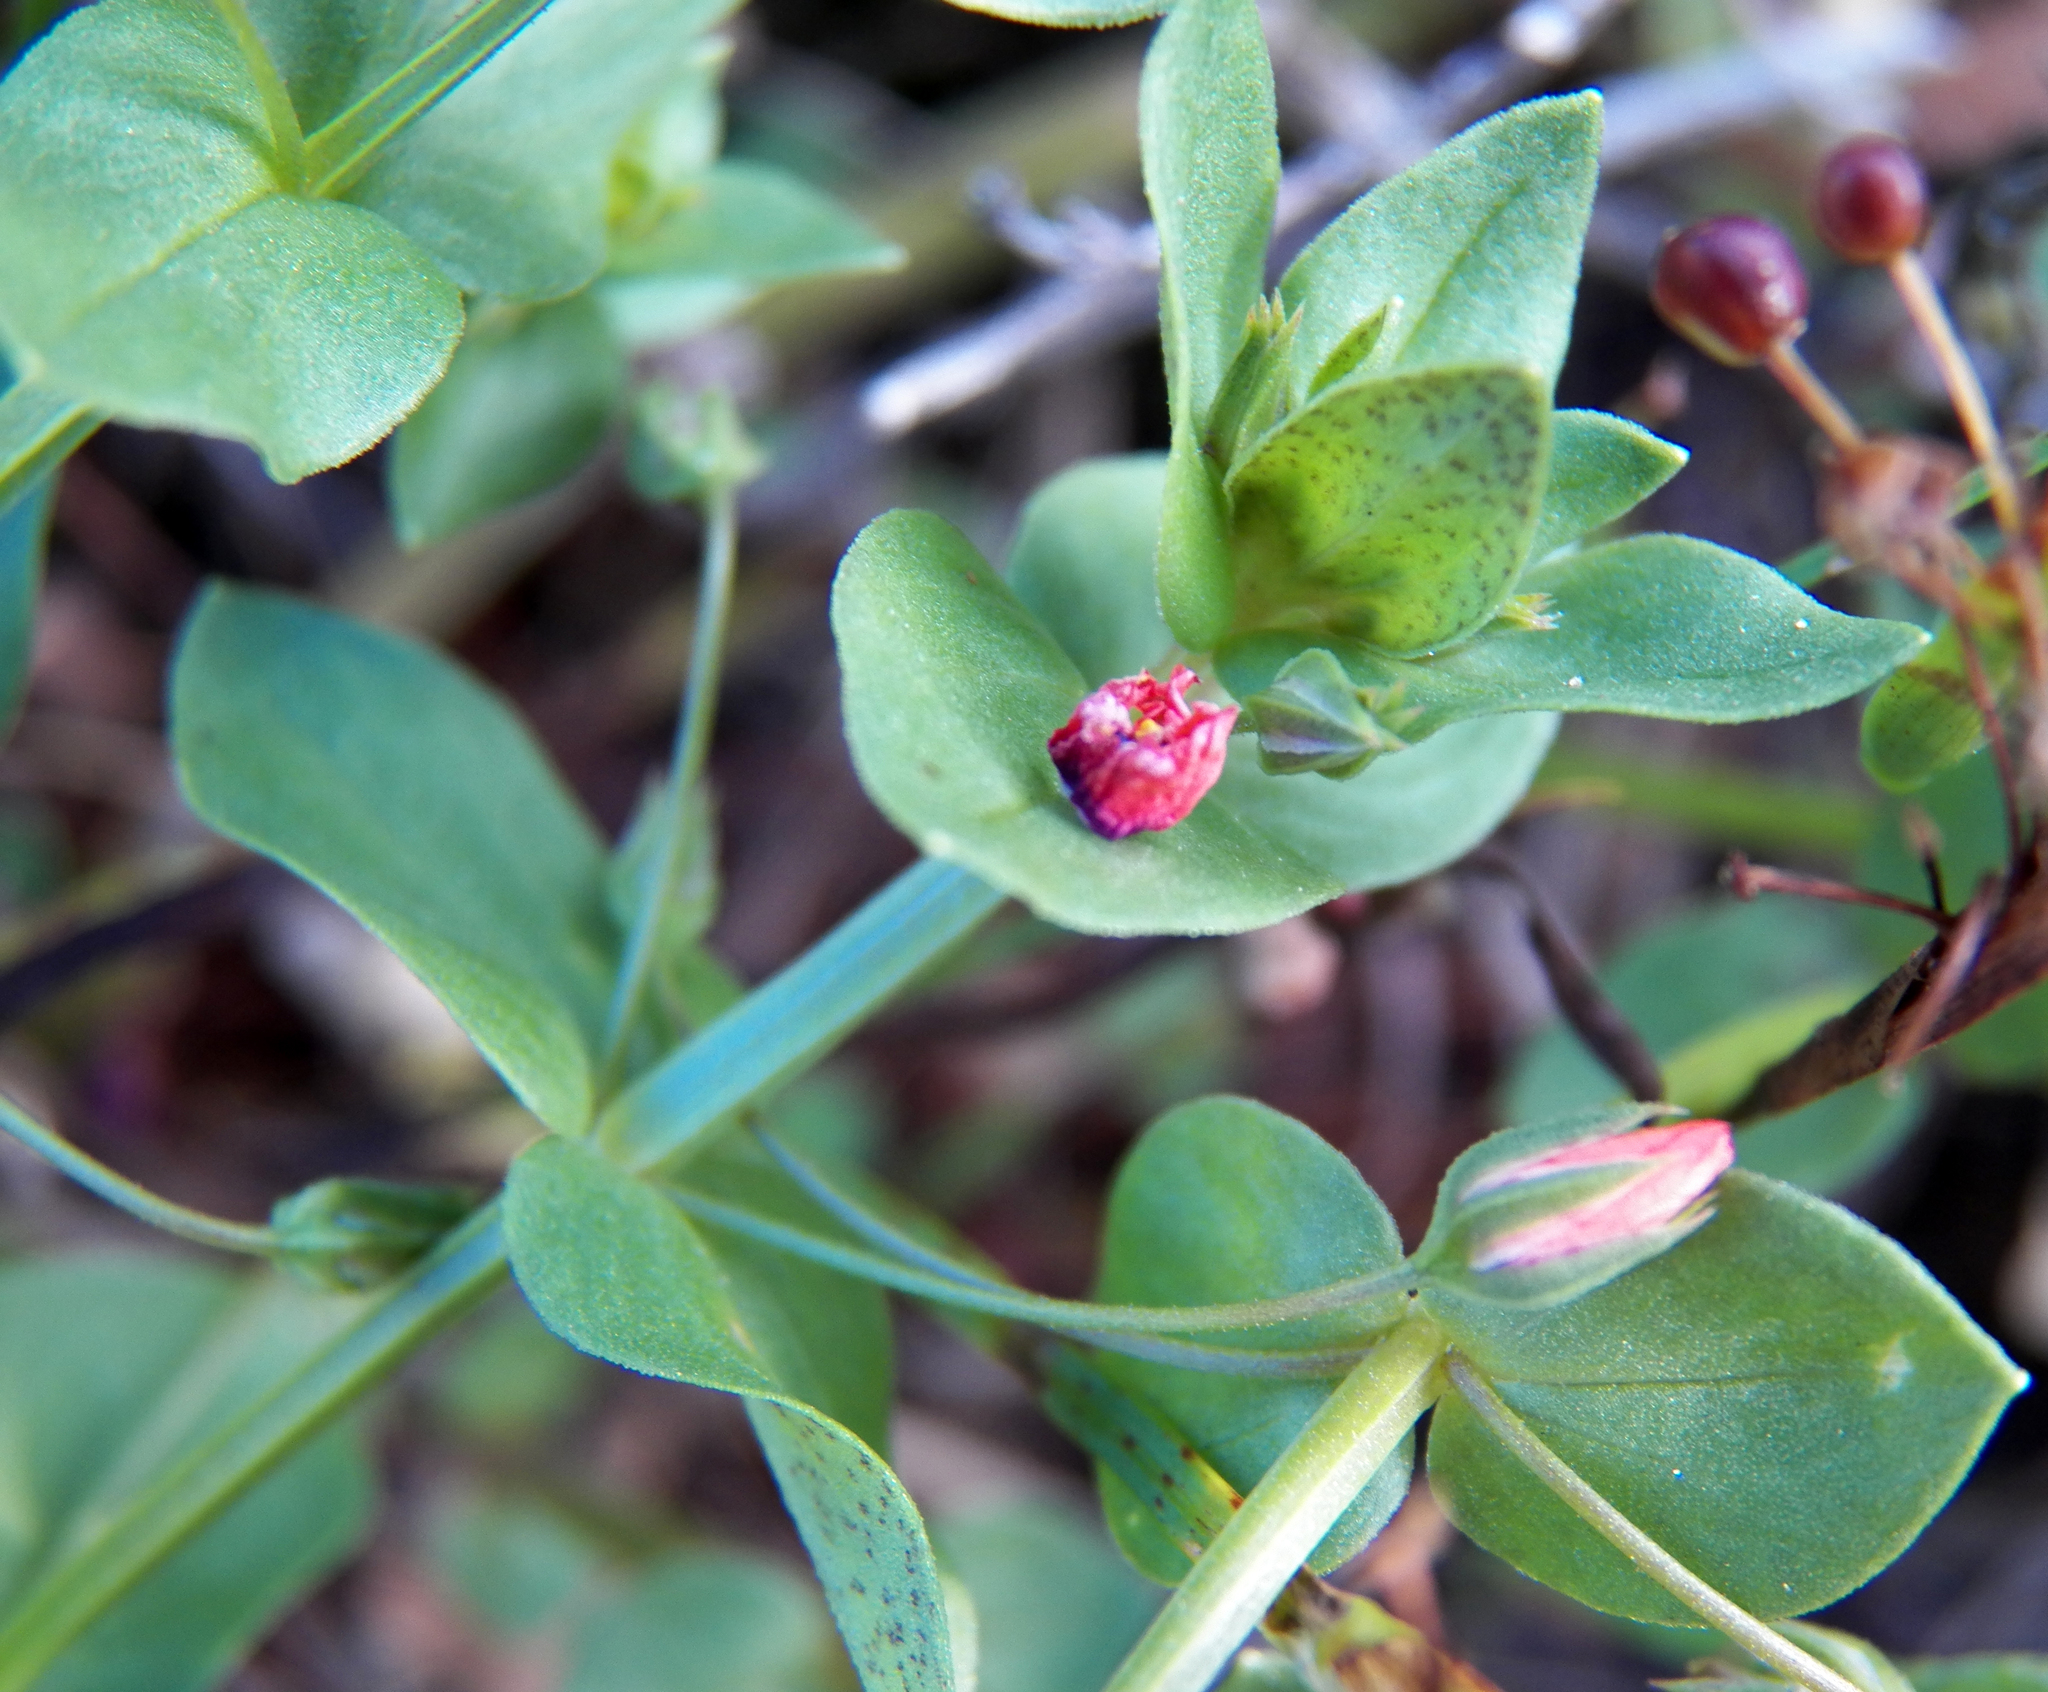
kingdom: Plantae
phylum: Tracheophyta
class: Magnoliopsida
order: Ericales
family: Primulaceae
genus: Lysimachia
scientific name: Lysimachia arvensis
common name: Scarlet pimpernel
